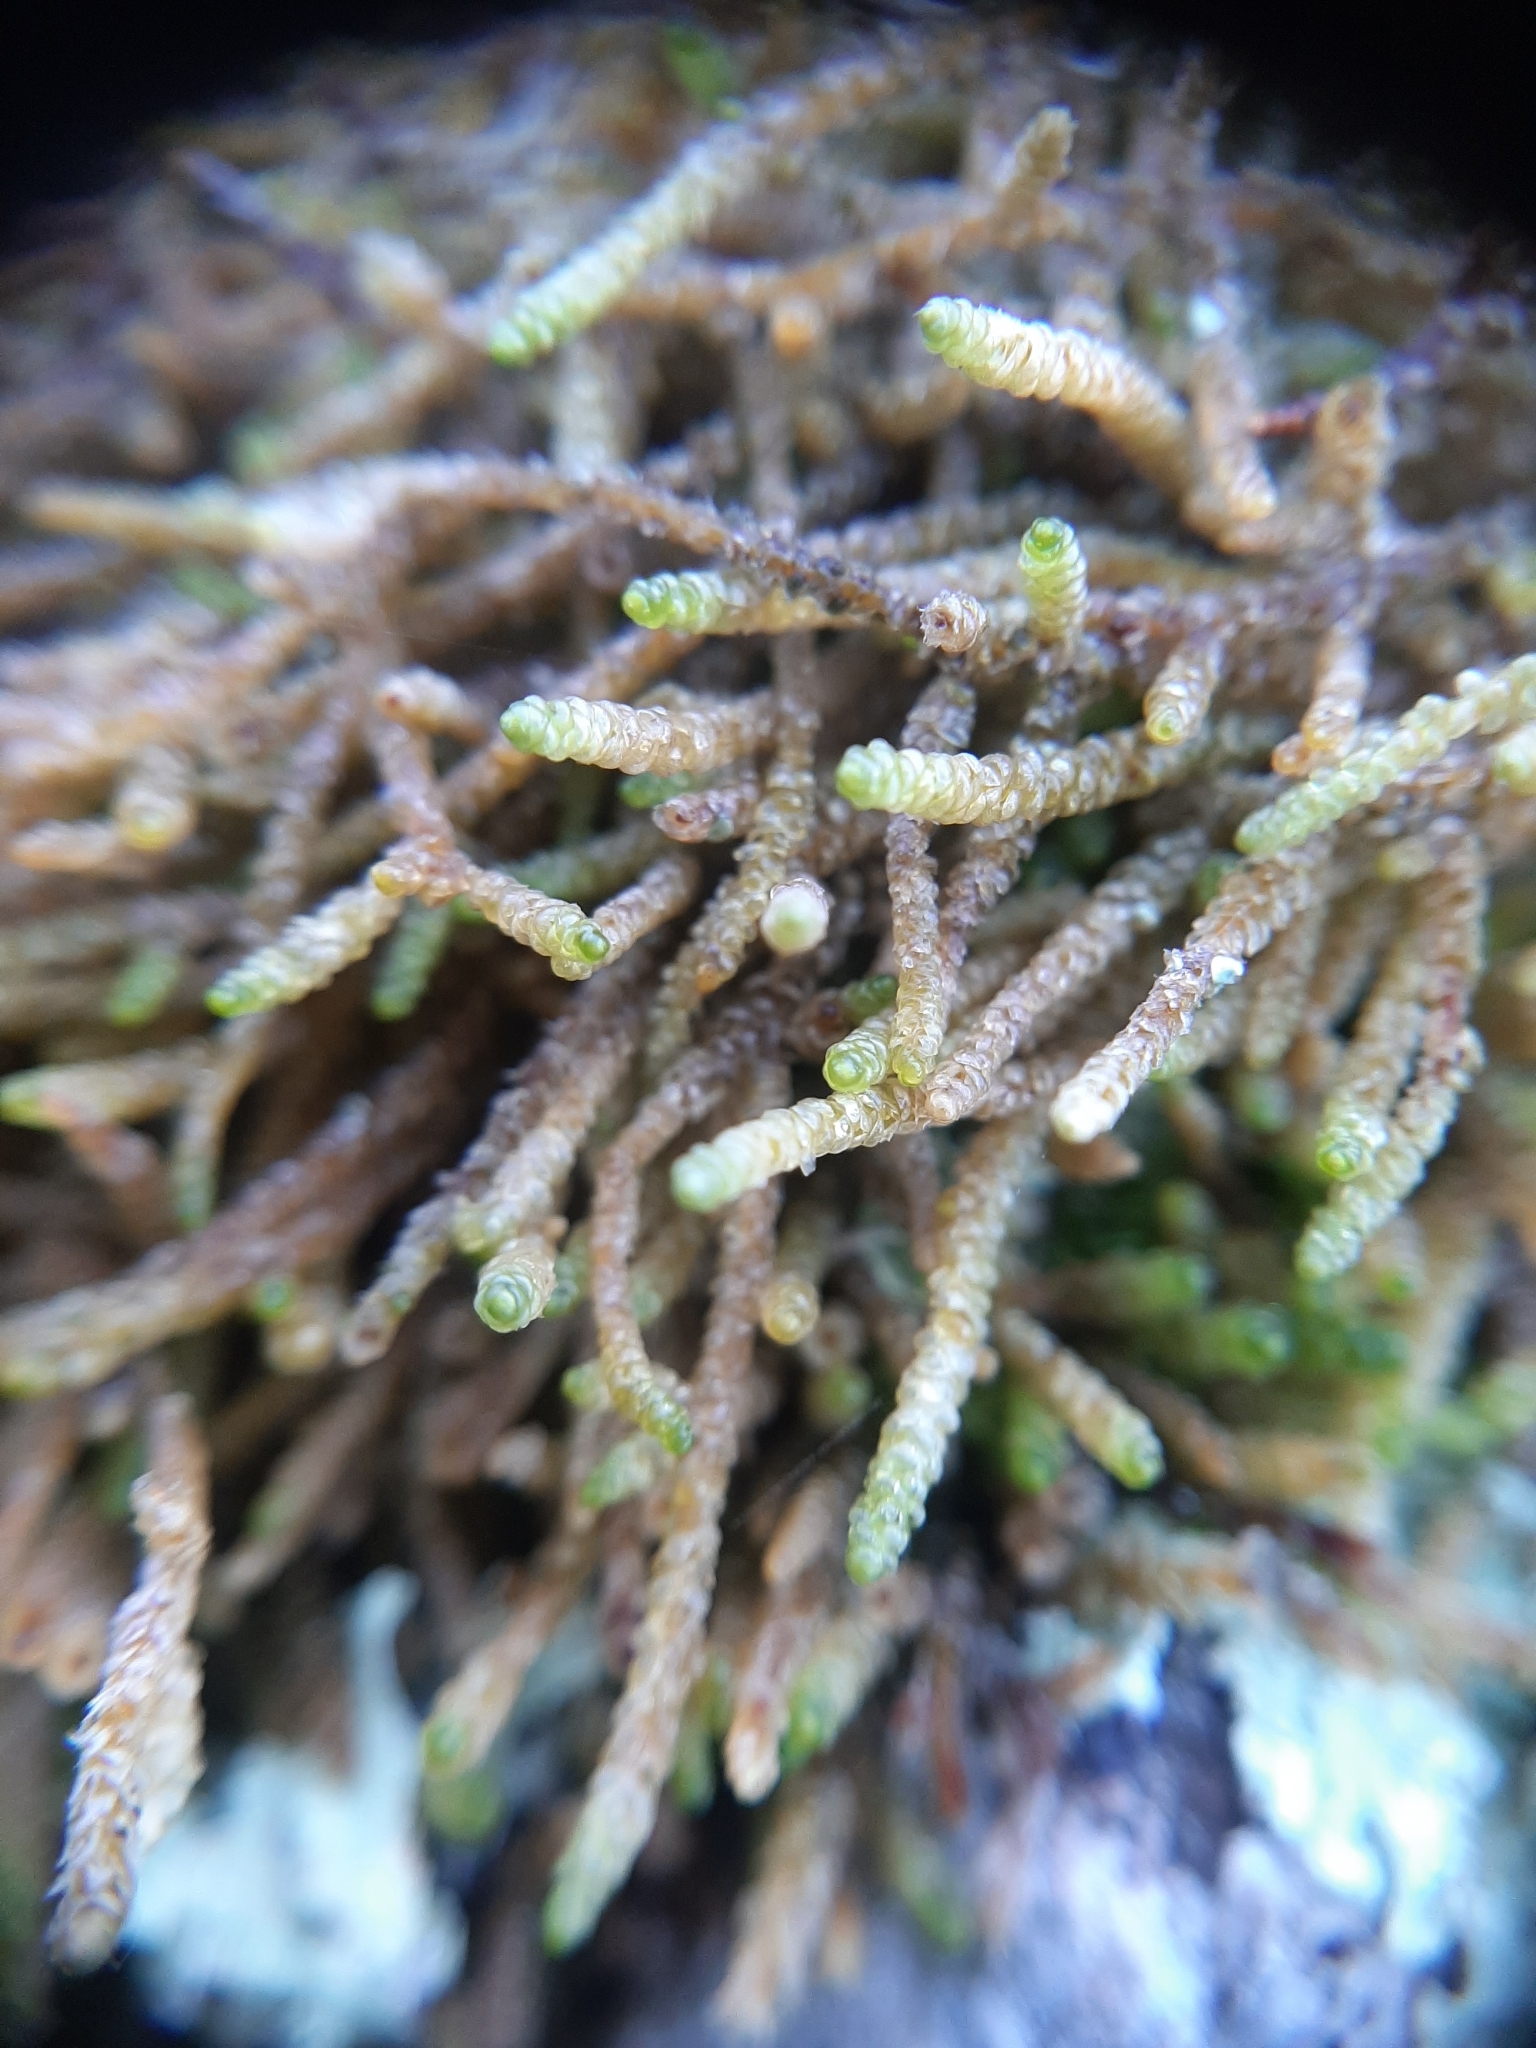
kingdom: Plantae
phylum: Bryophyta
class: Bryopsida
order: Hypnales
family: Lembophyllaceae
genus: Lembophyllum
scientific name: Lembophyllum divulsum
